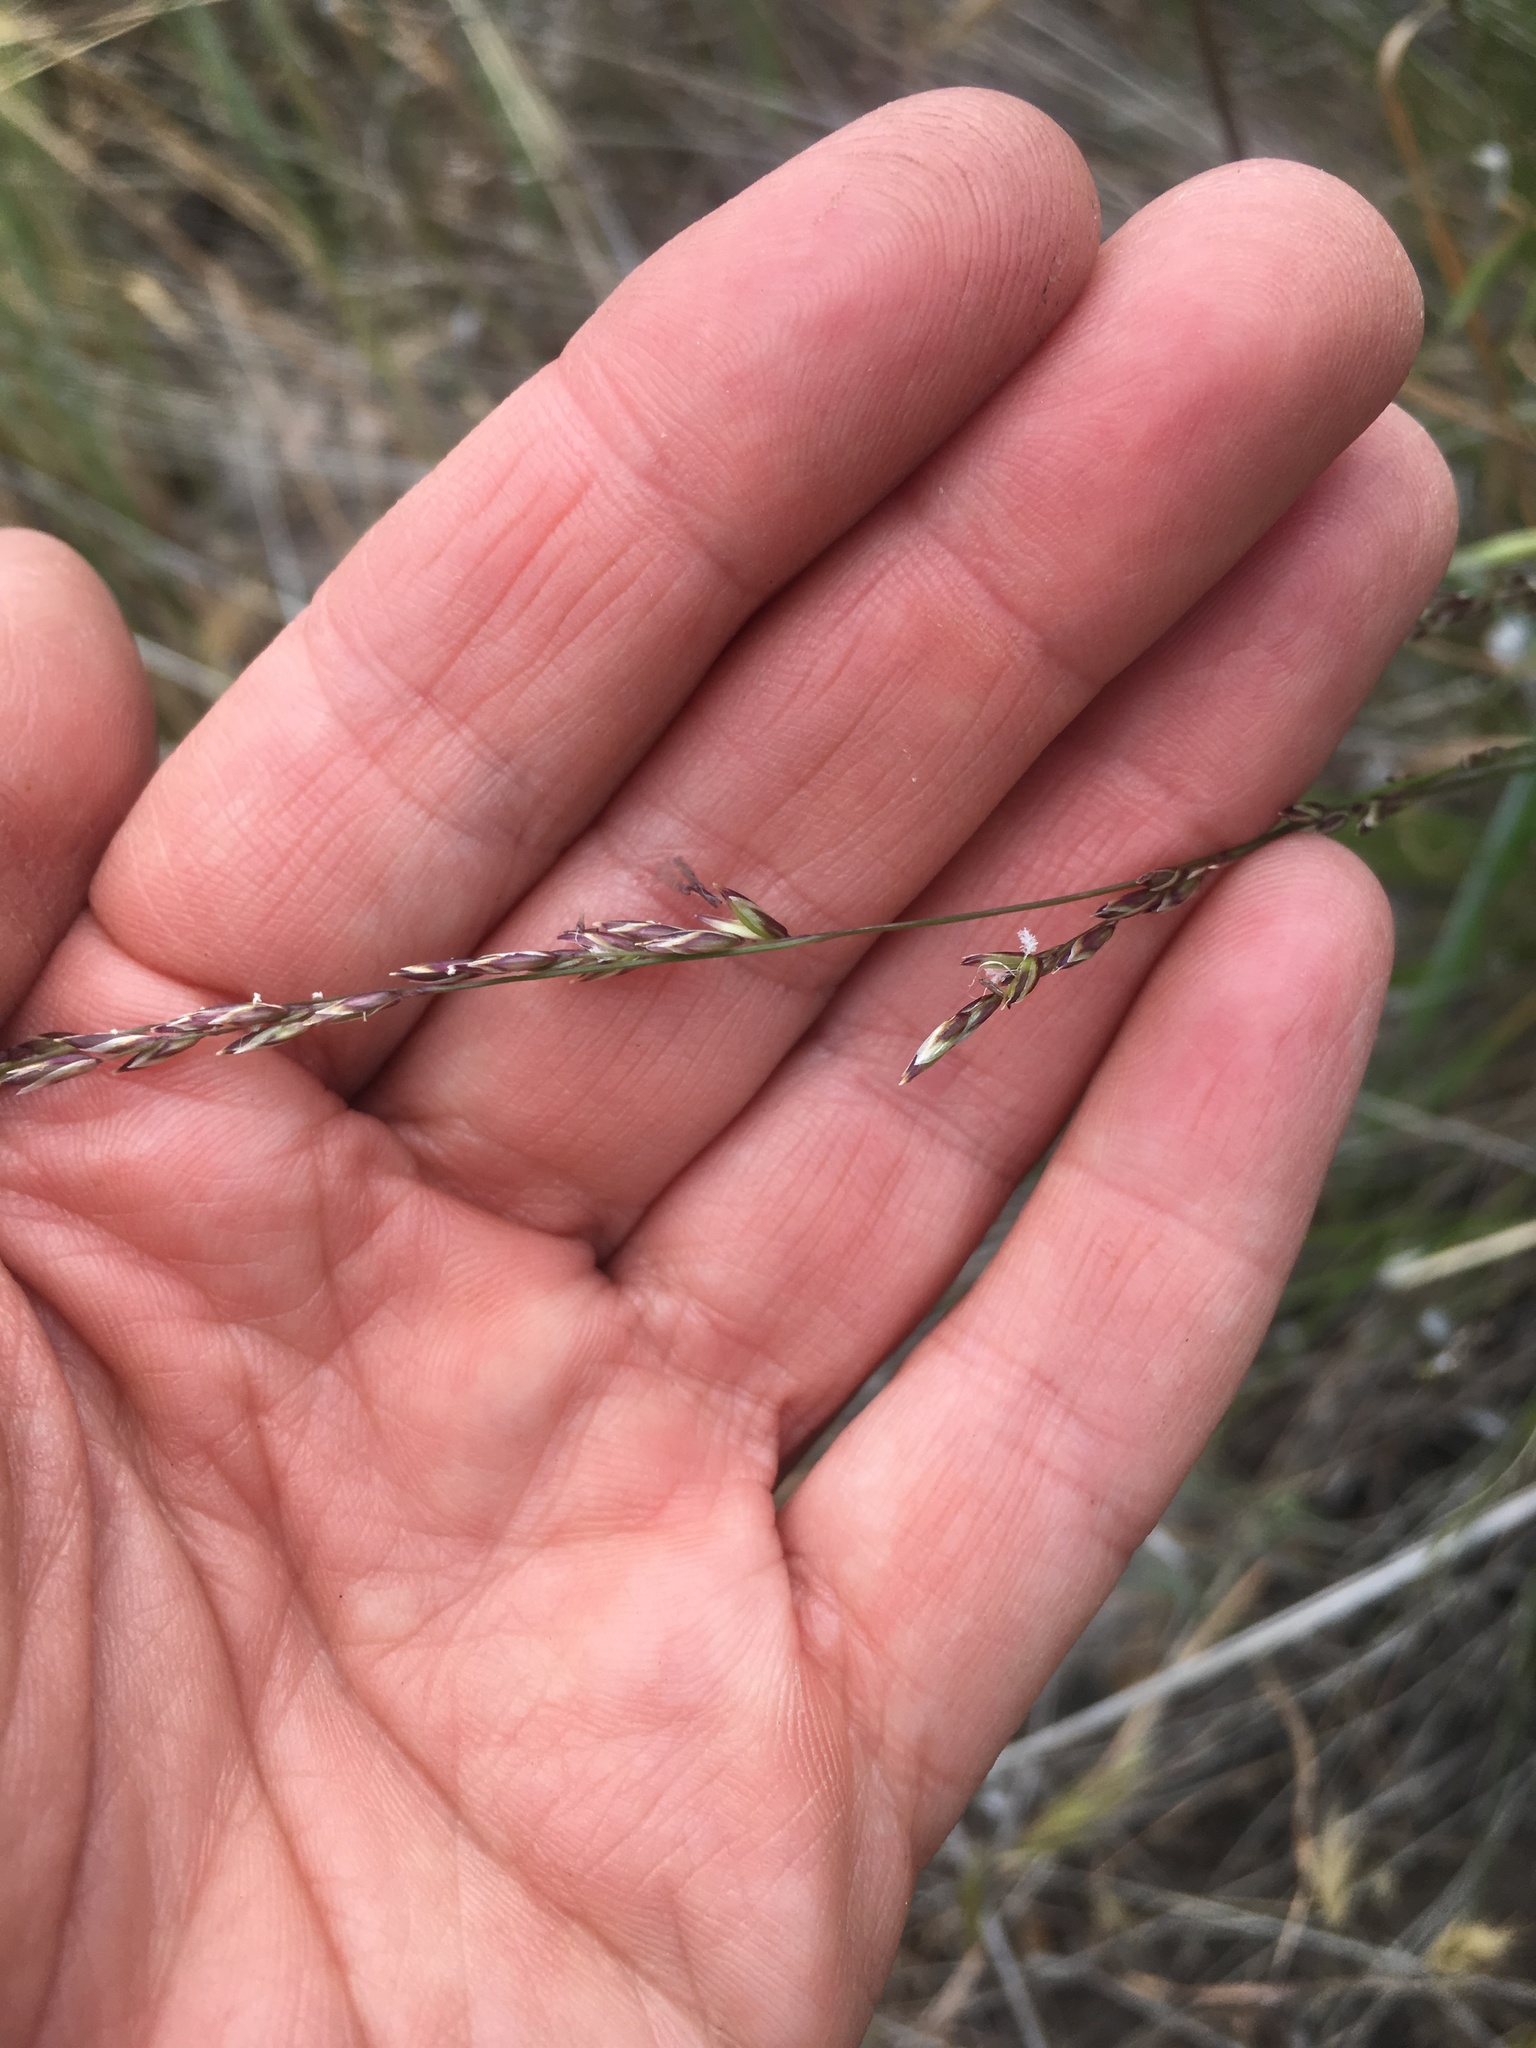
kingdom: Plantae
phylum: Tracheophyta
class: Liliopsida
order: Poales
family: Poaceae
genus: Melica
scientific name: Melica imperfecta
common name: California melic
